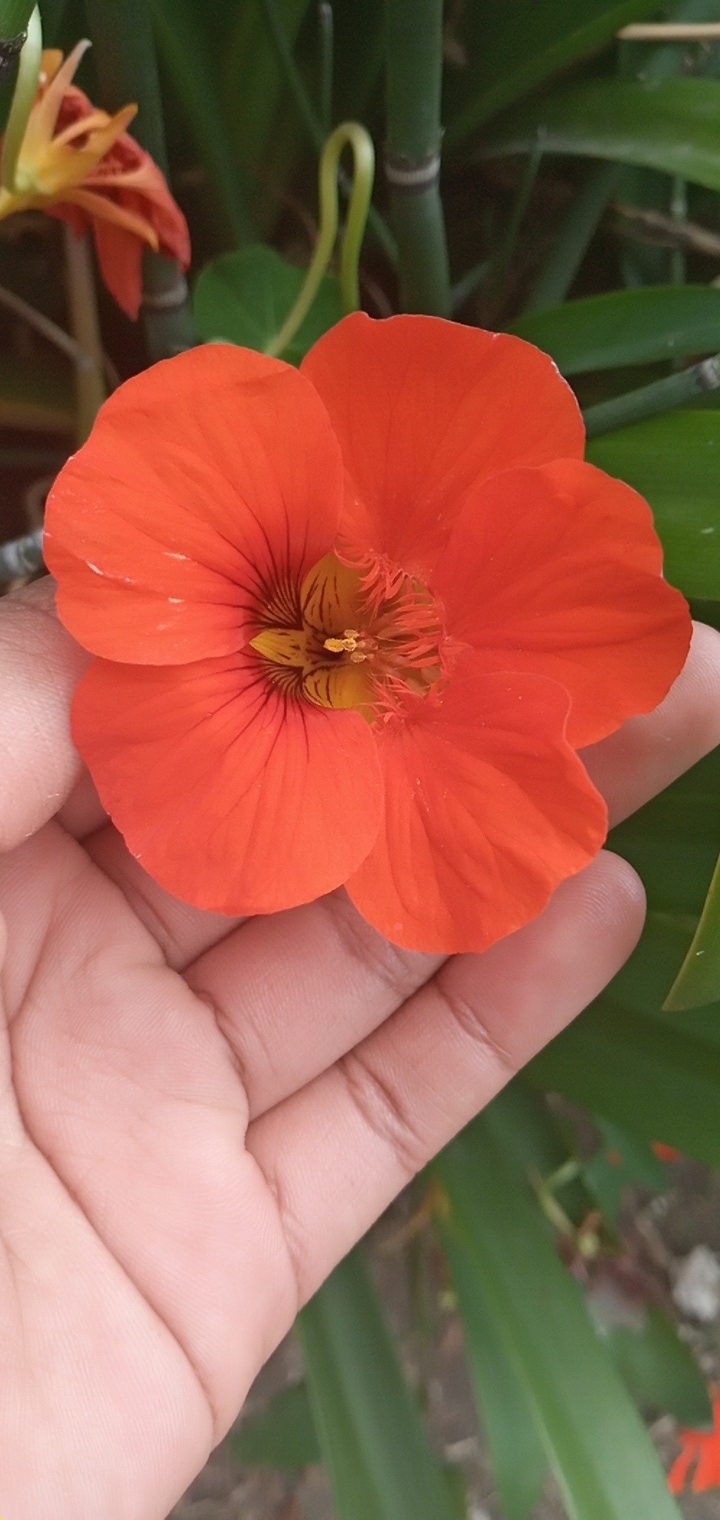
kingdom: Plantae
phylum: Tracheophyta
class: Magnoliopsida
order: Brassicales
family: Tropaeolaceae
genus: Tropaeolum
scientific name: Tropaeolum majus
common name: Nasturtium
